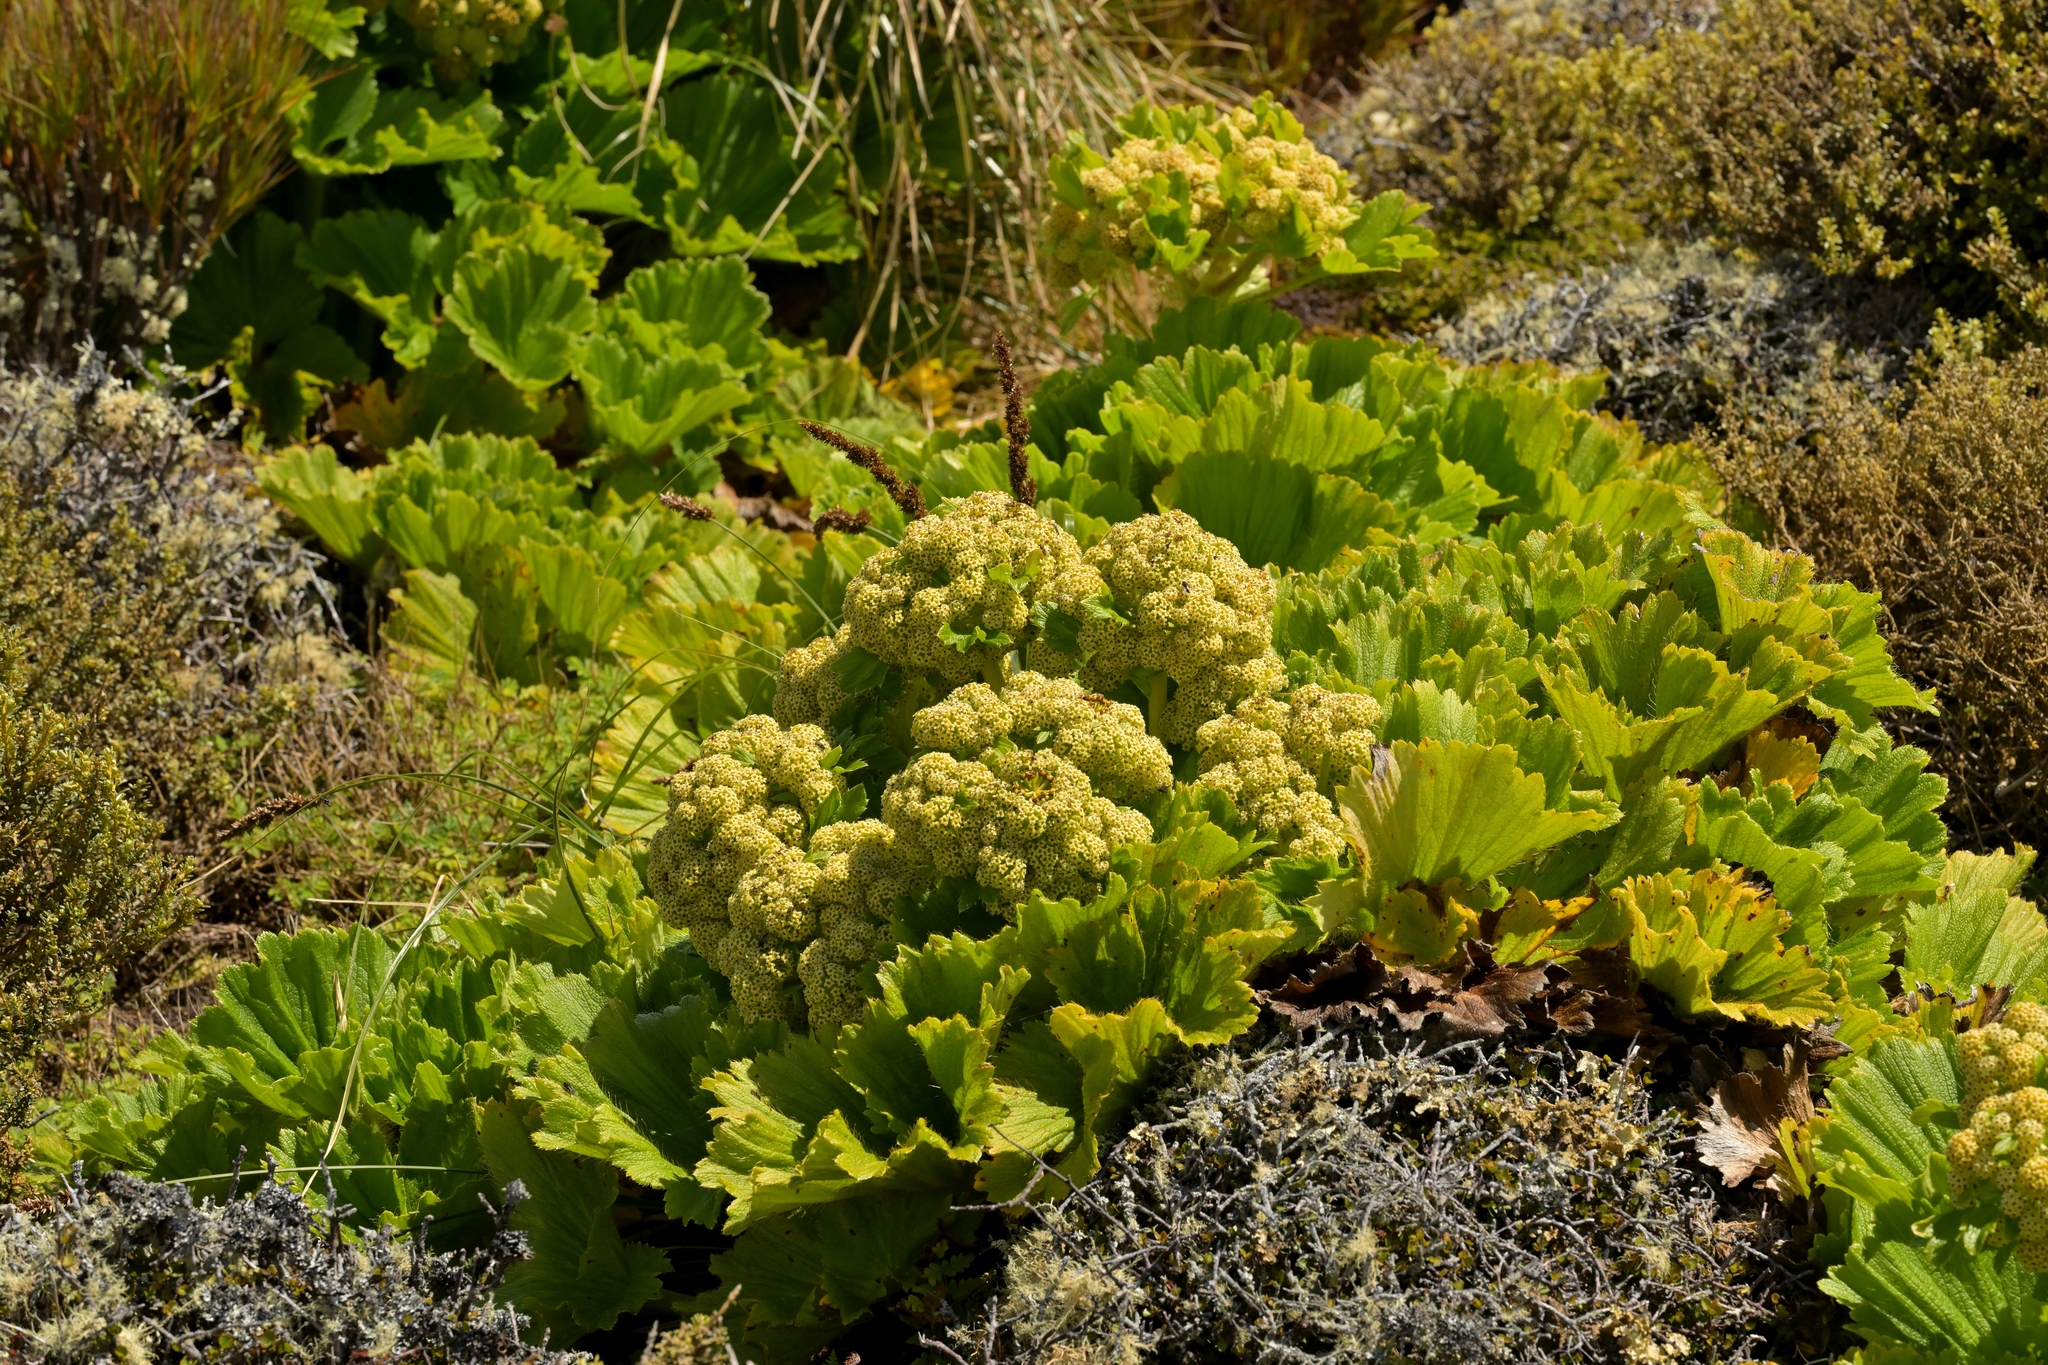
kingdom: Plantae
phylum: Tracheophyta
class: Magnoliopsida
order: Apiales
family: Apiaceae
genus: Azorella
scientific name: Azorella polaris
